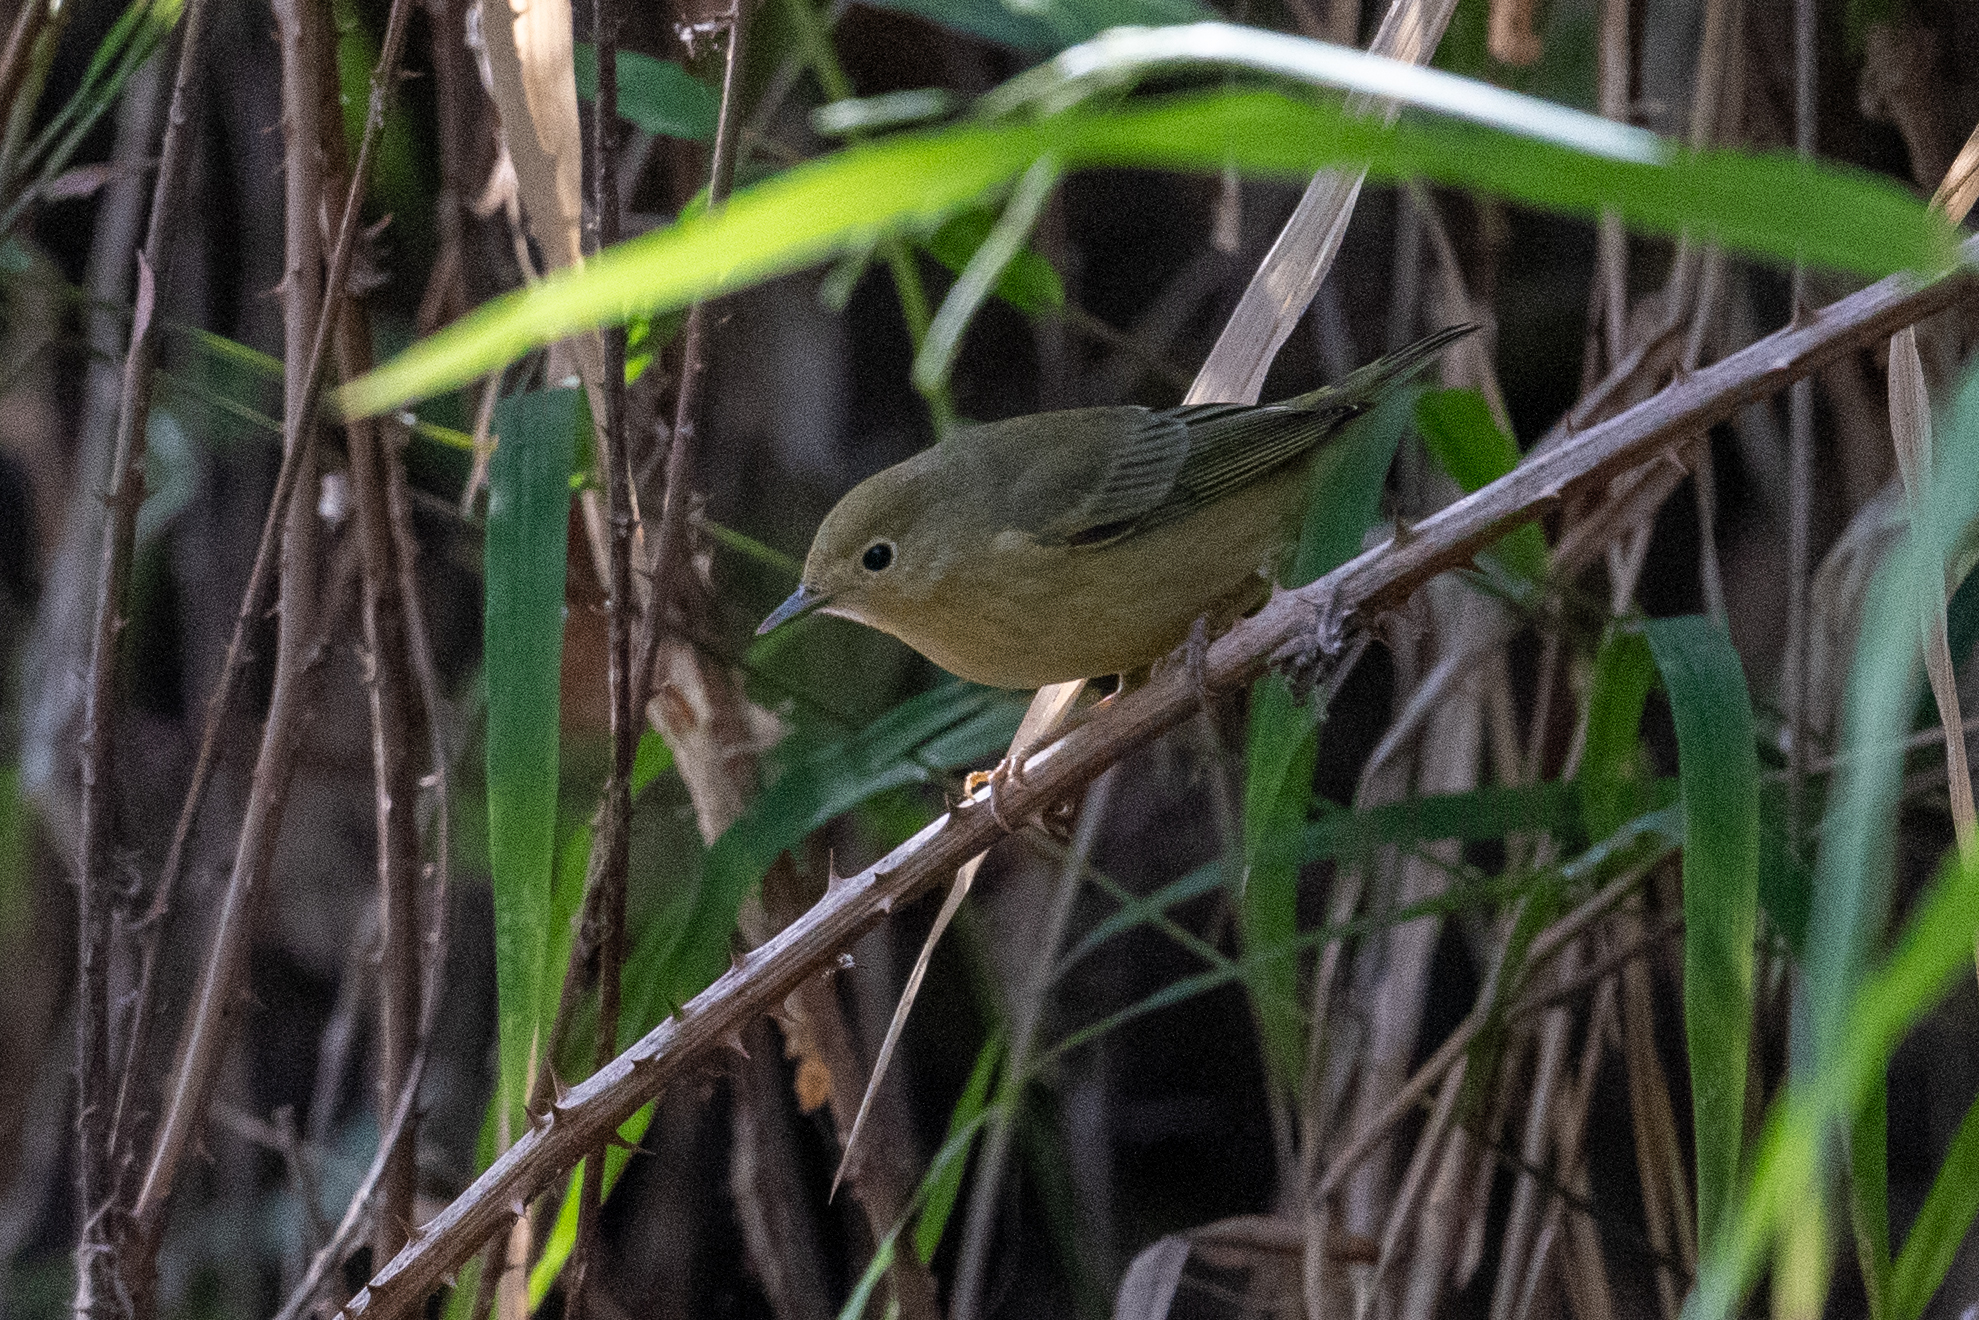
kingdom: Animalia
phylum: Chordata
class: Aves
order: Passeriformes
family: Parulidae
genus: Setophaga
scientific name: Setophaga petechia
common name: Yellow warbler
